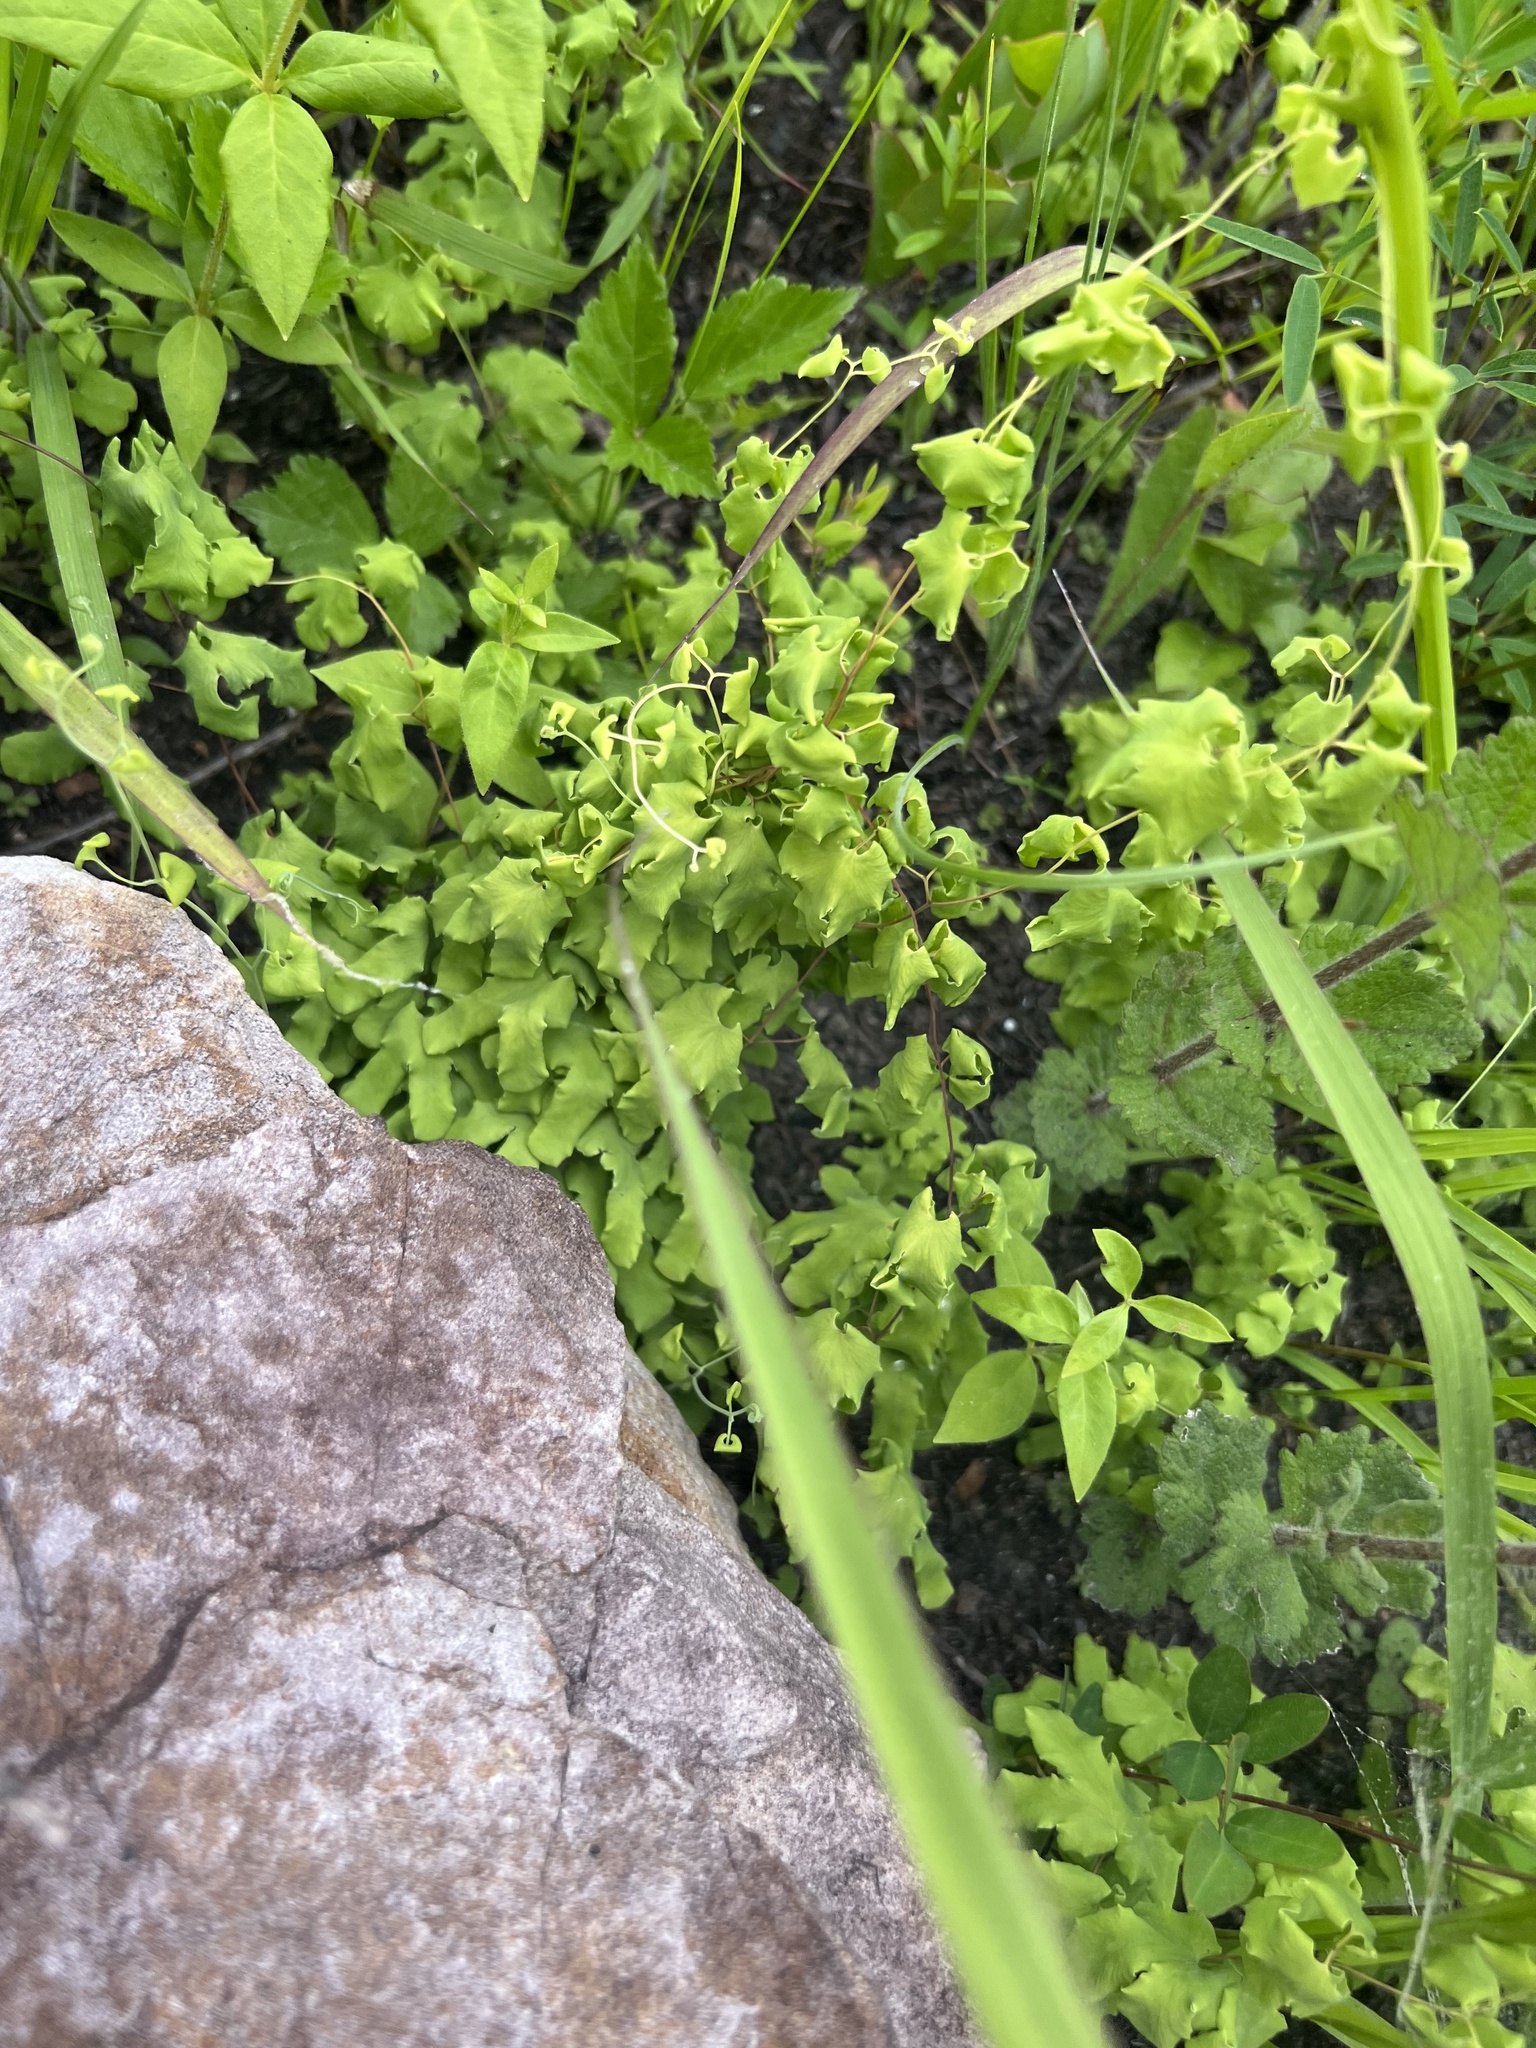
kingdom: Plantae
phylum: Tracheophyta
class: Polypodiopsida
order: Schizaeales
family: Lygodiaceae
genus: Lygodium
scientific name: Lygodium palmatum
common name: American climbing fern
